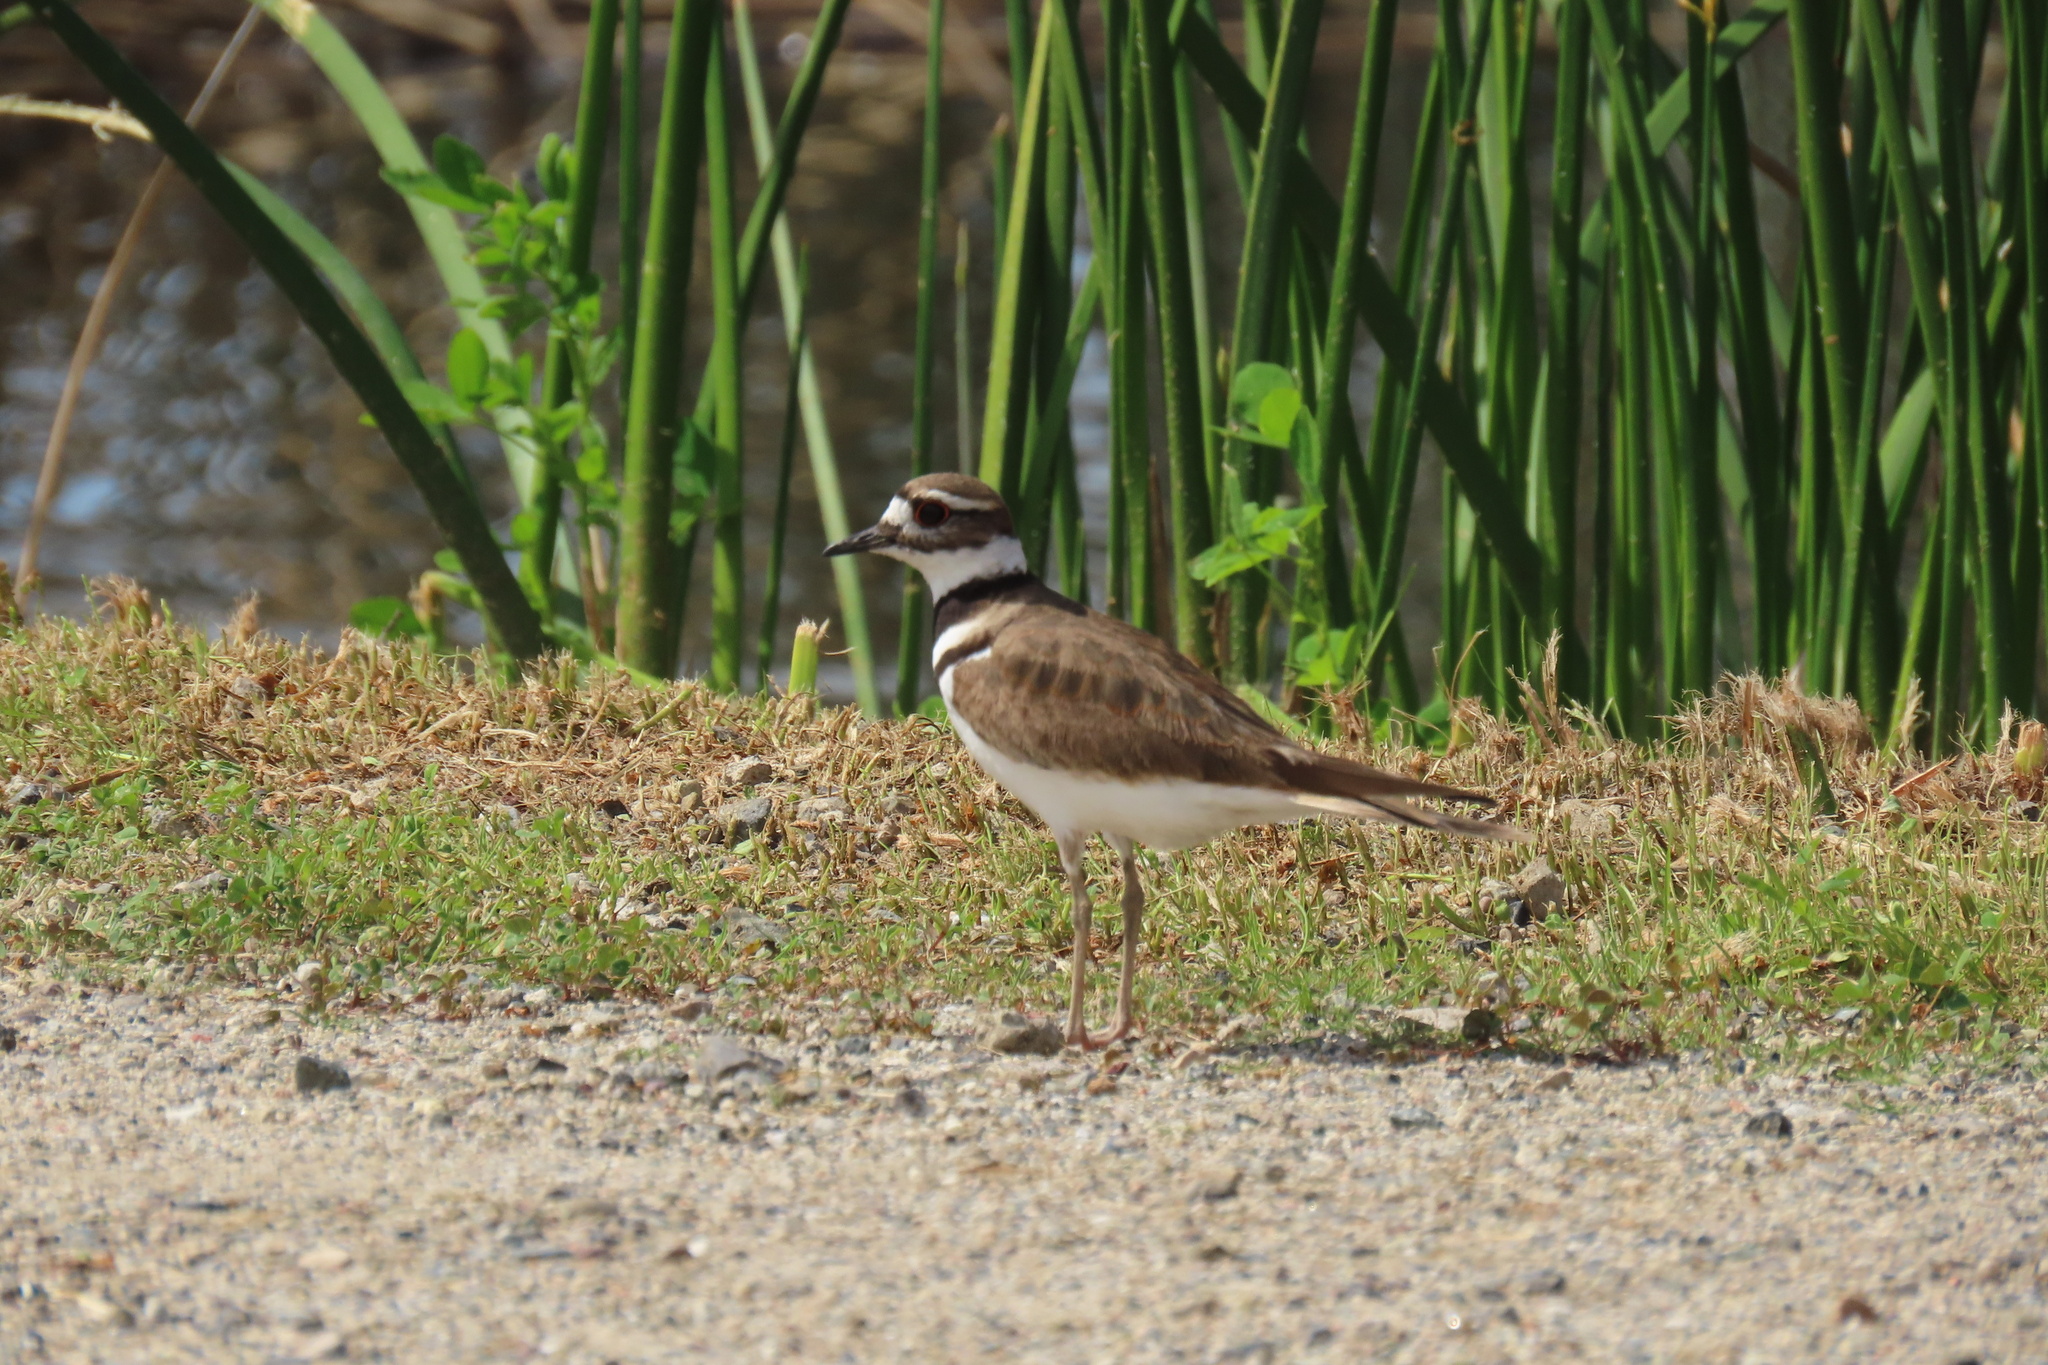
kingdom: Animalia
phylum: Chordata
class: Aves
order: Charadriiformes
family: Charadriidae
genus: Charadrius
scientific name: Charadrius vociferus
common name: Killdeer
